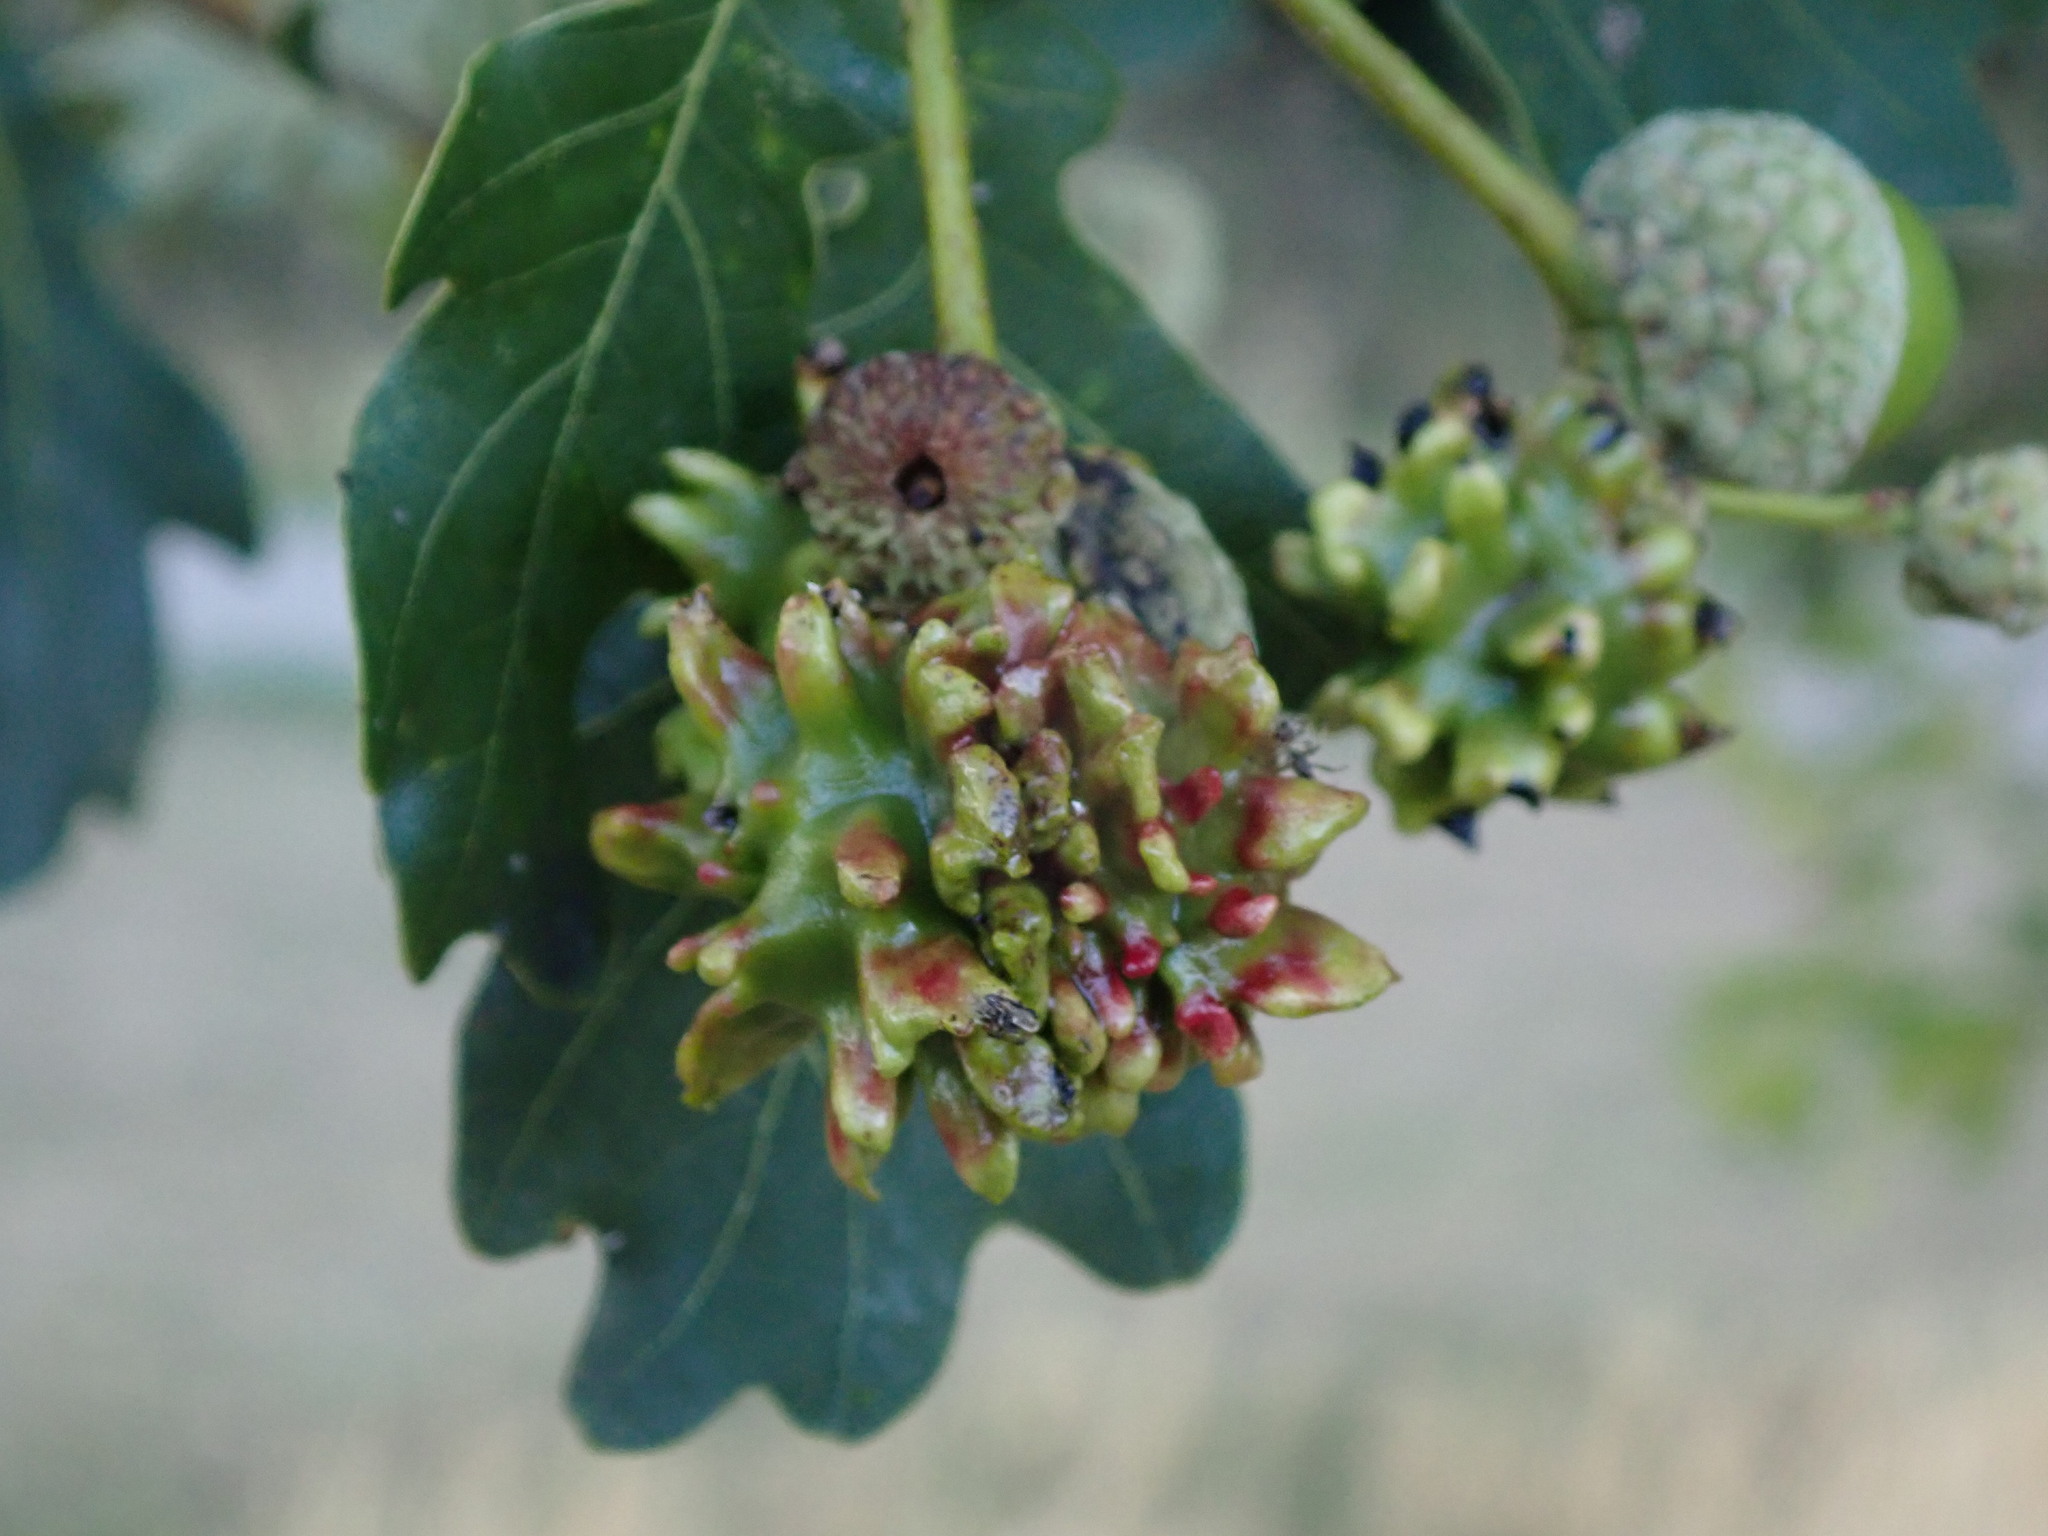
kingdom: Animalia
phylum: Arthropoda
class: Insecta
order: Hymenoptera
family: Cynipidae
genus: Andricus
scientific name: Andricus quercuscalicis
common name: Knopper gall
